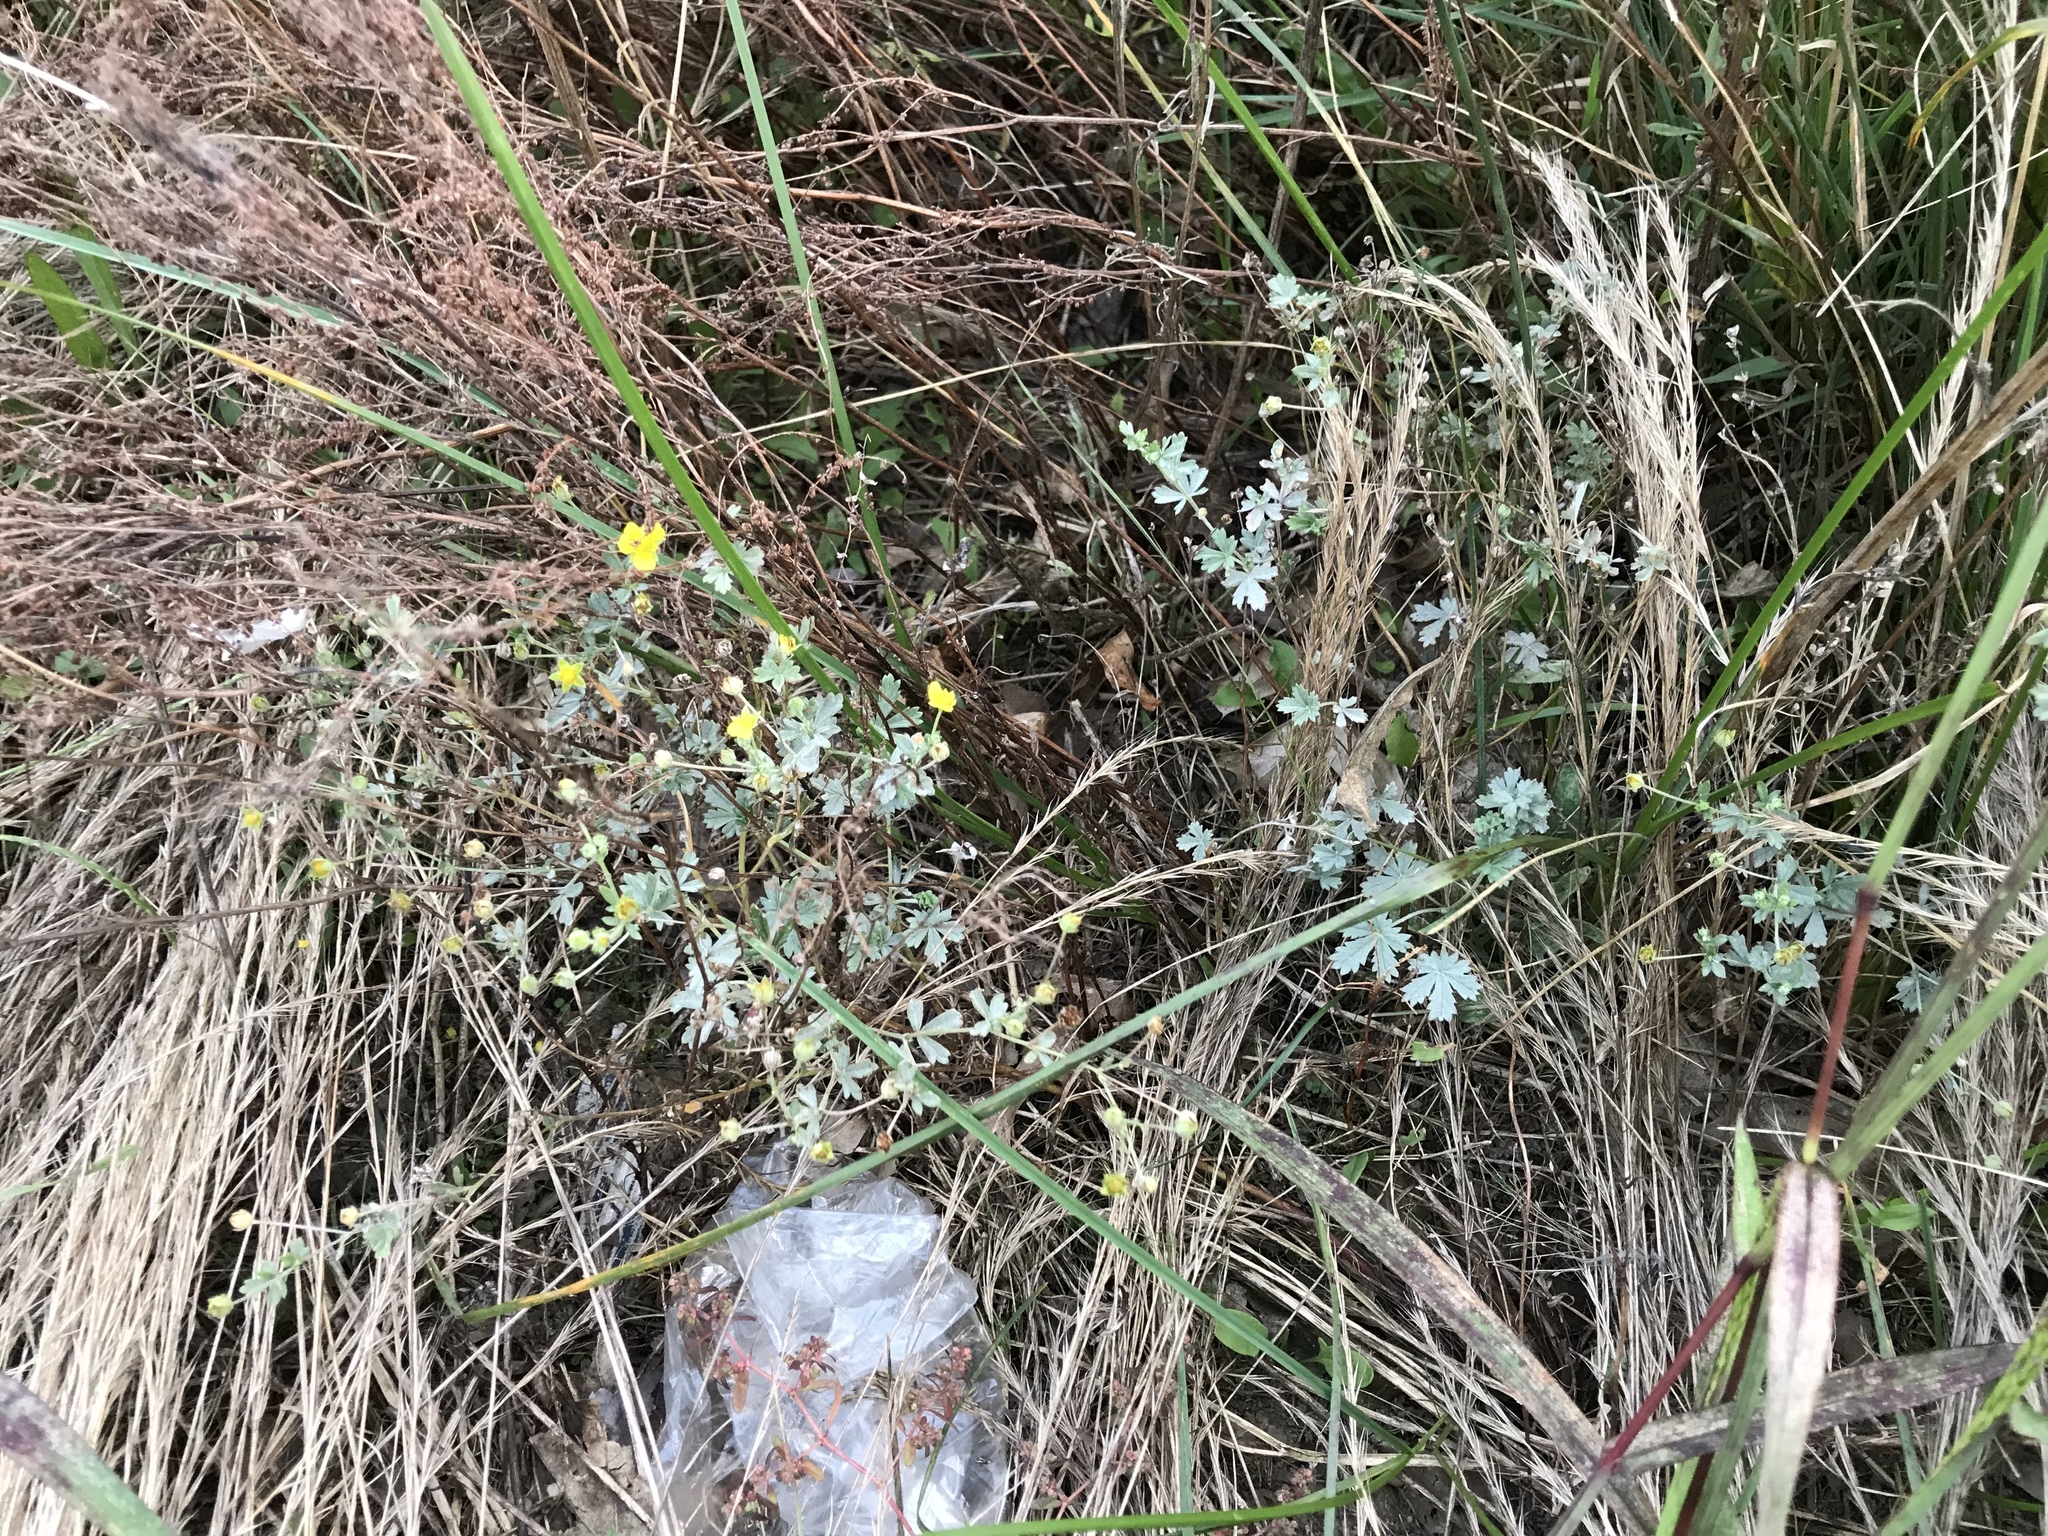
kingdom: Plantae
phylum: Tracheophyta
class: Magnoliopsida
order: Rosales
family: Rosaceae
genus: Potentilla
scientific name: Potentilla argentea
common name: Hoary cinquefoil
